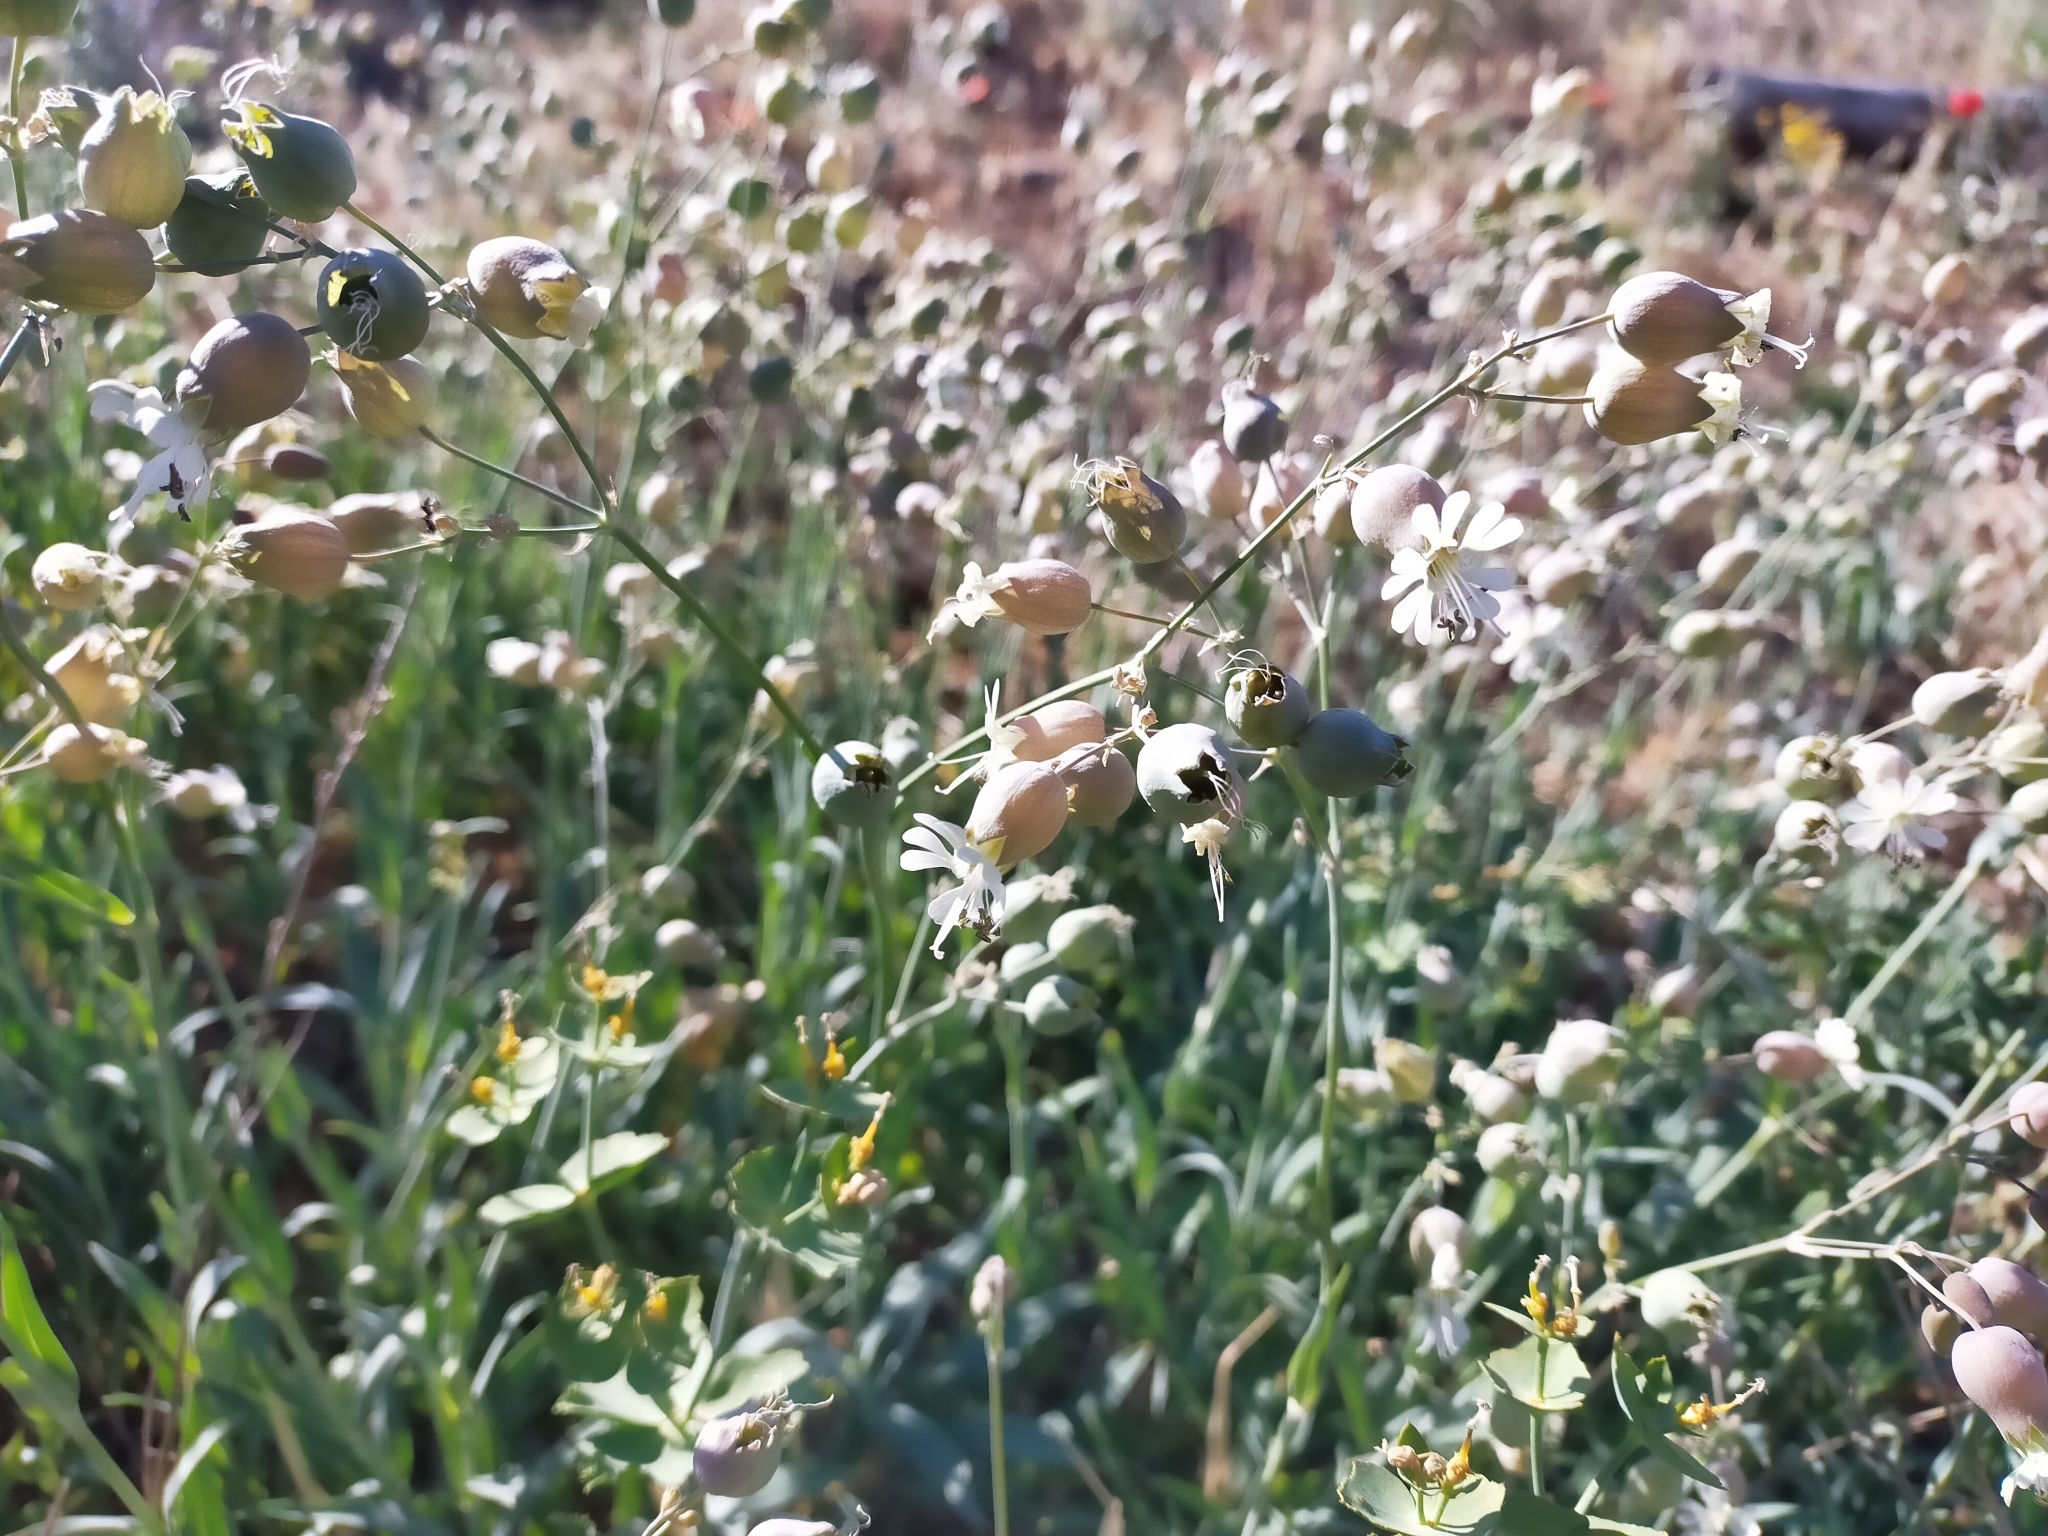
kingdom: Plantae
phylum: Tracheophyta
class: Magnoliopsida
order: Caryophyllales
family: Caryophyllaceae
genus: Silene
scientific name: Silene vulgaris
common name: Bladder campion
